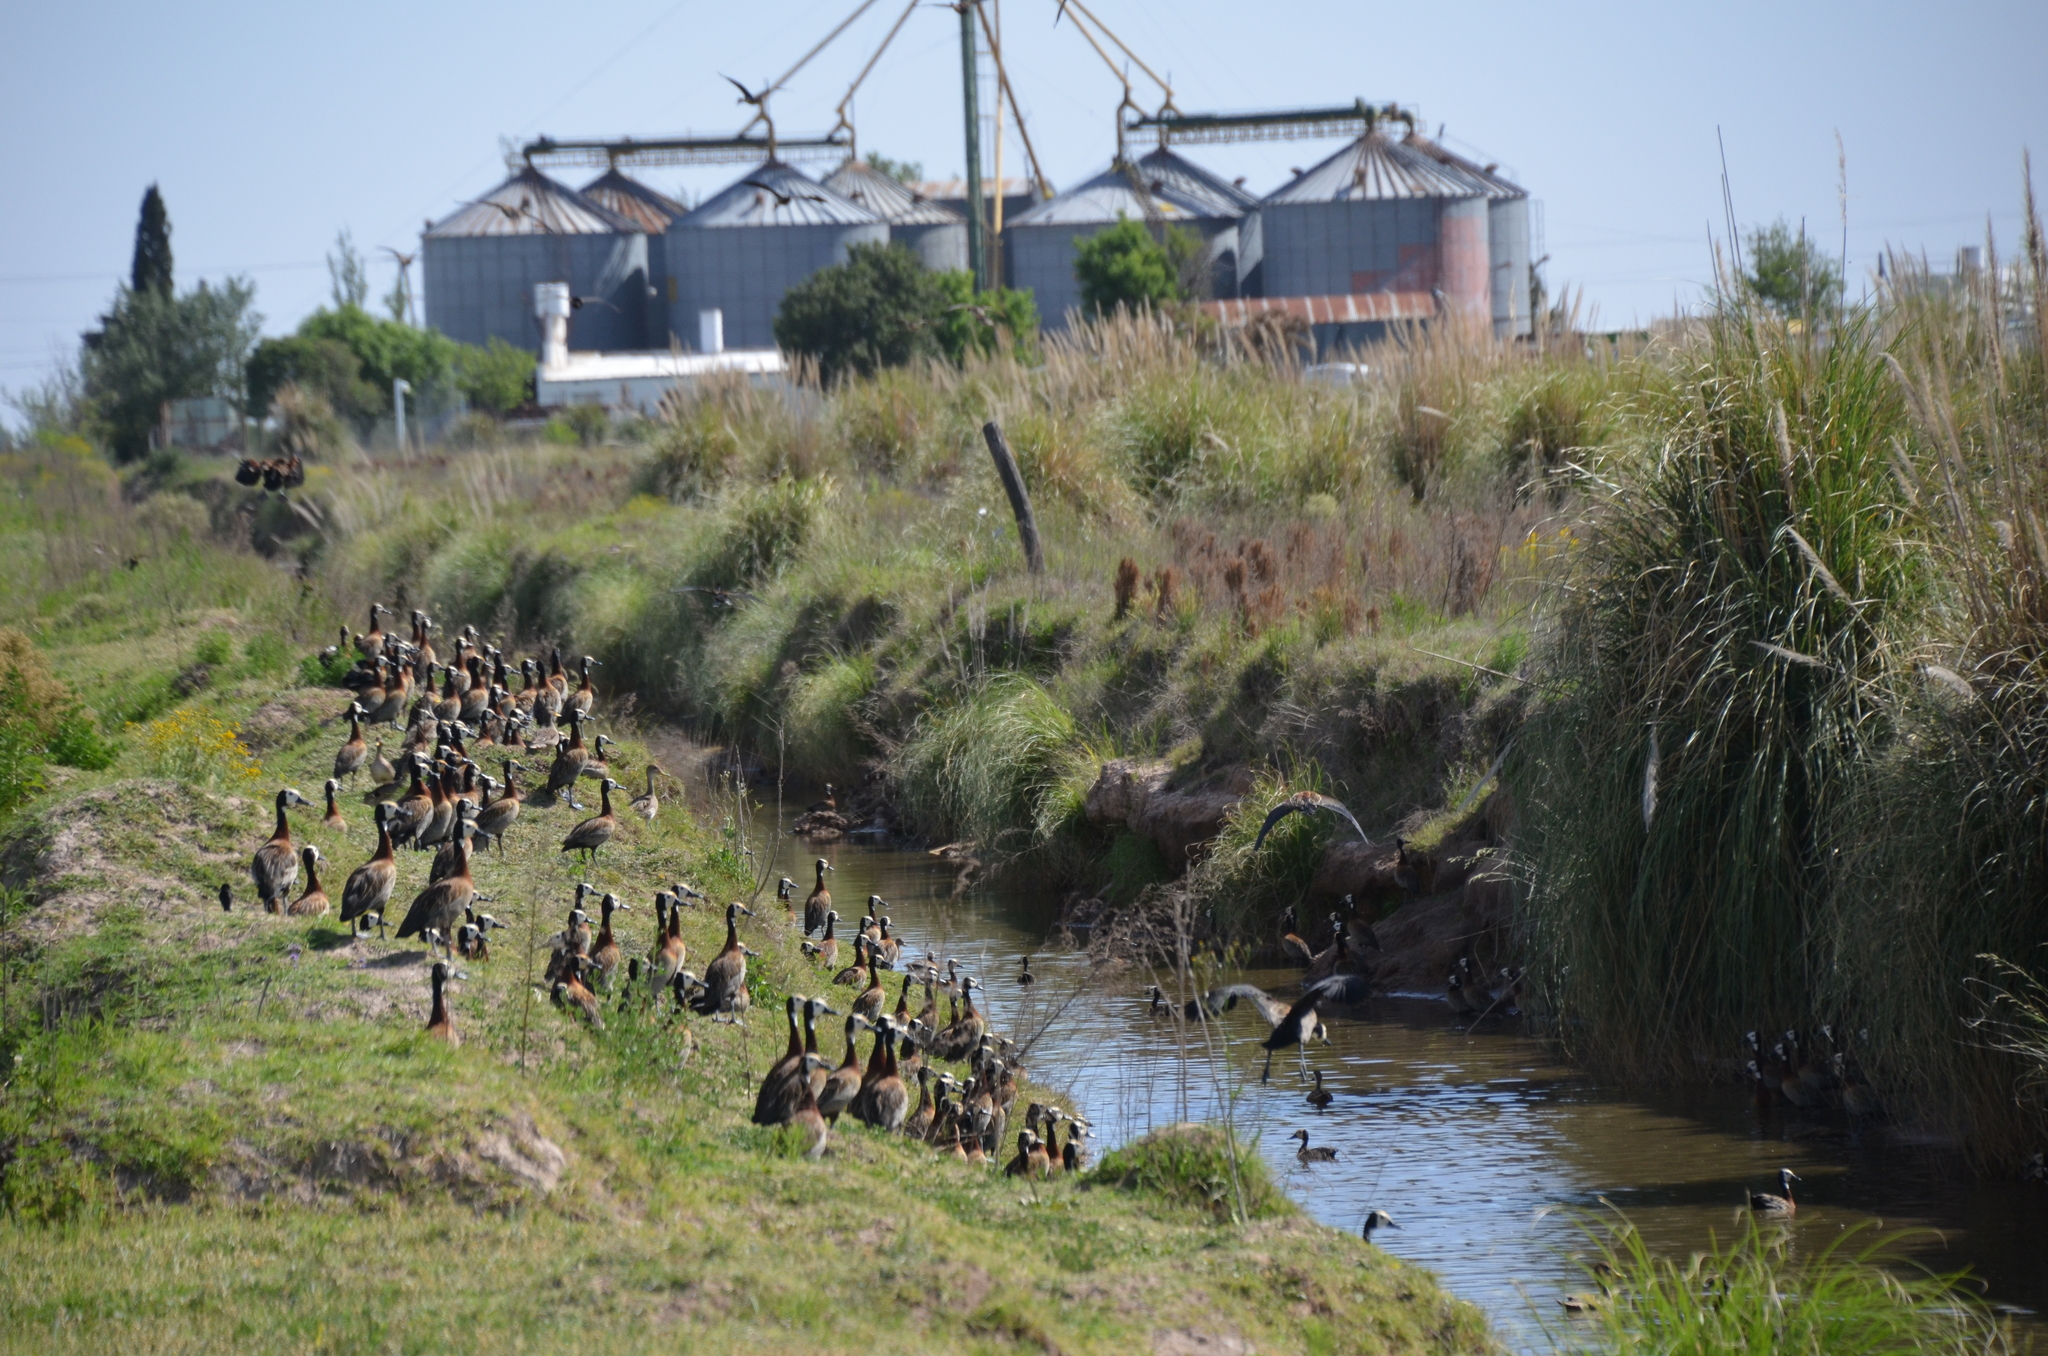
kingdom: Animalia
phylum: Chordata
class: Aves
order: Anseriformes
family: Anatidae
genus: Dendrocygna
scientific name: Dendrocygna viduata
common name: White-faced whistling duck
